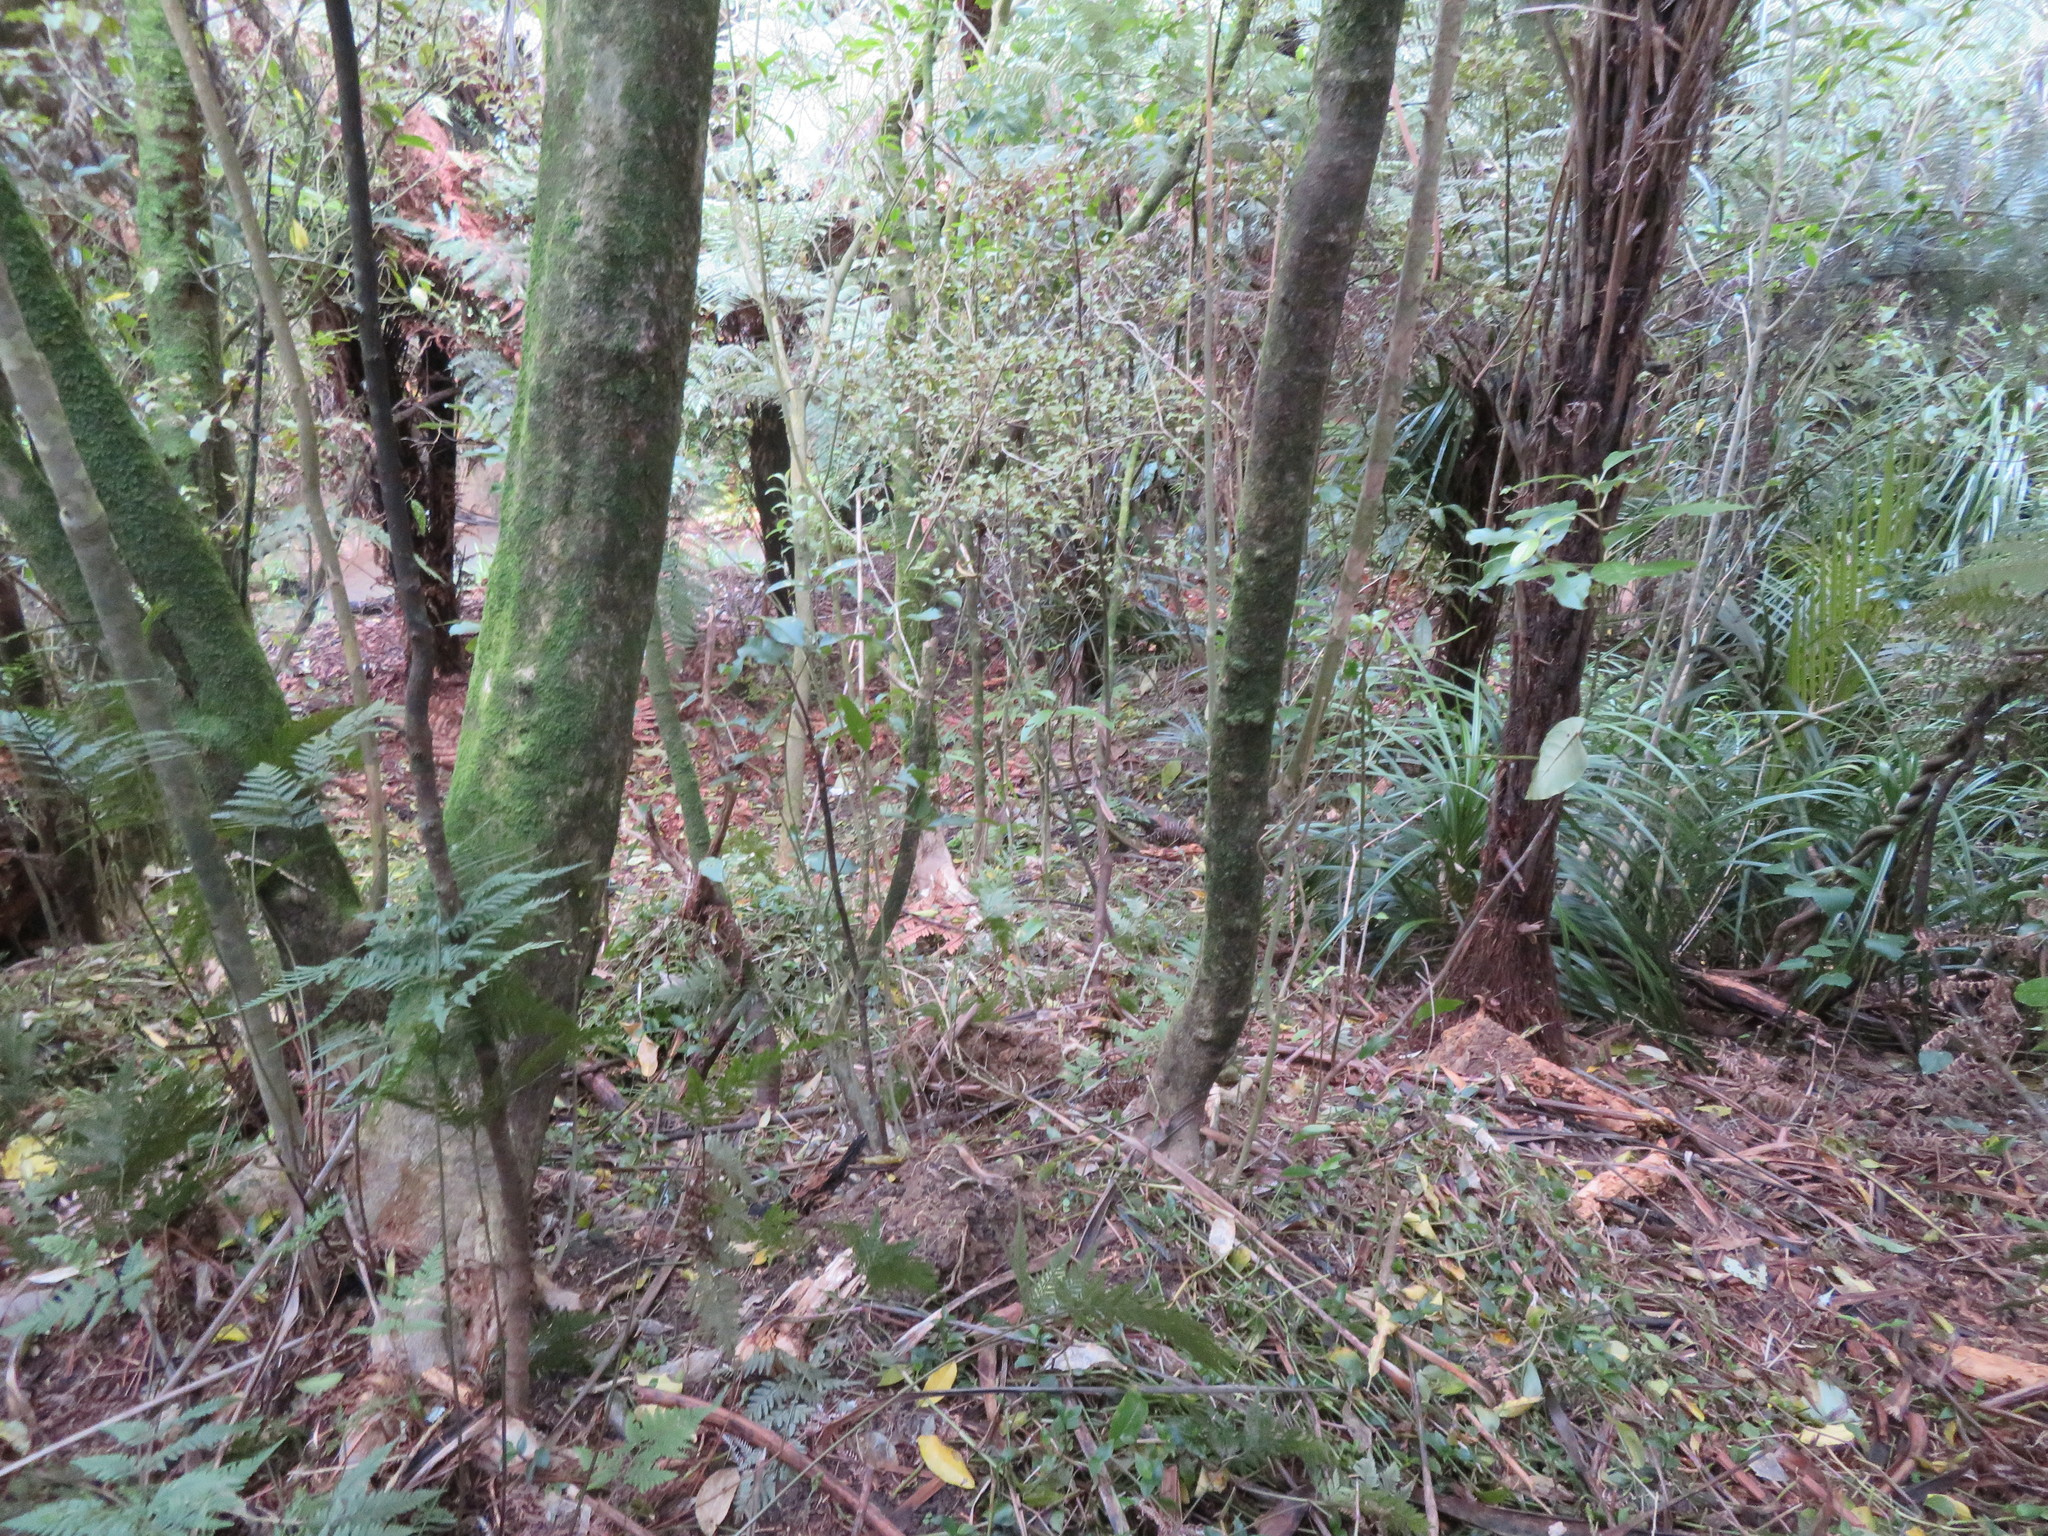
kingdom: Plantae
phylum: Tracheophyta
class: Magnoliopsida
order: Ericales
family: Primulaceae
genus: Myrsine
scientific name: Myrsine australis
